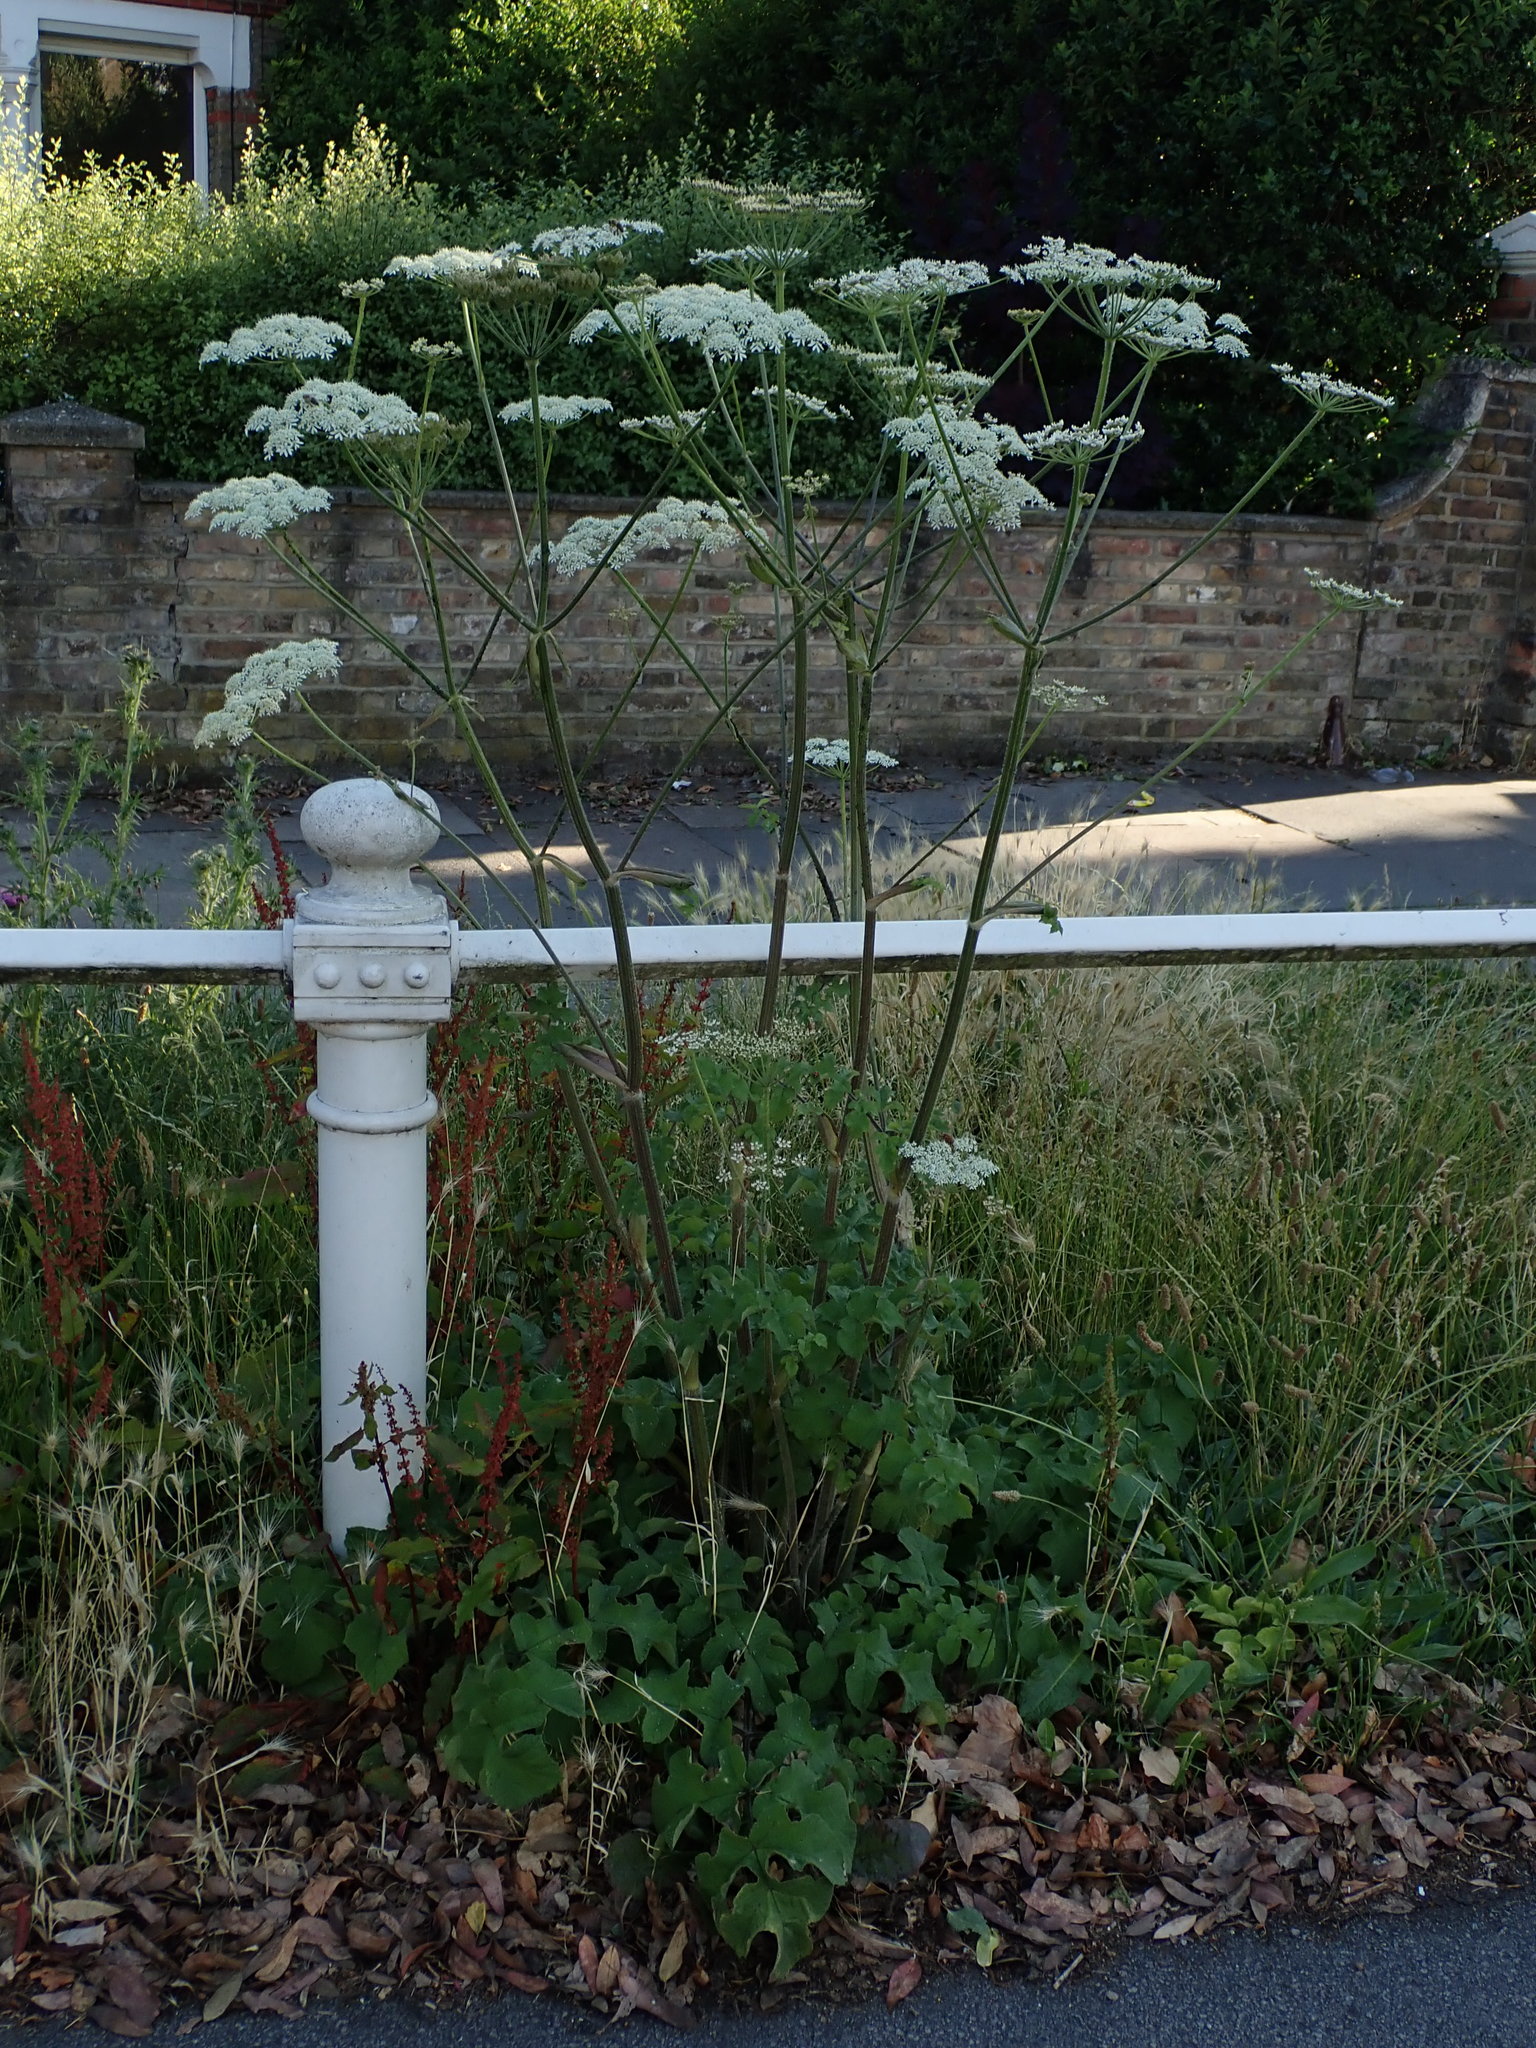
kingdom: Plantae
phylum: Tracheophyta
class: Magnoliopsida
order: Apiales
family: Apiaceae
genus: Heracleum
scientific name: Heracleum sphondylium
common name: Hogweed
